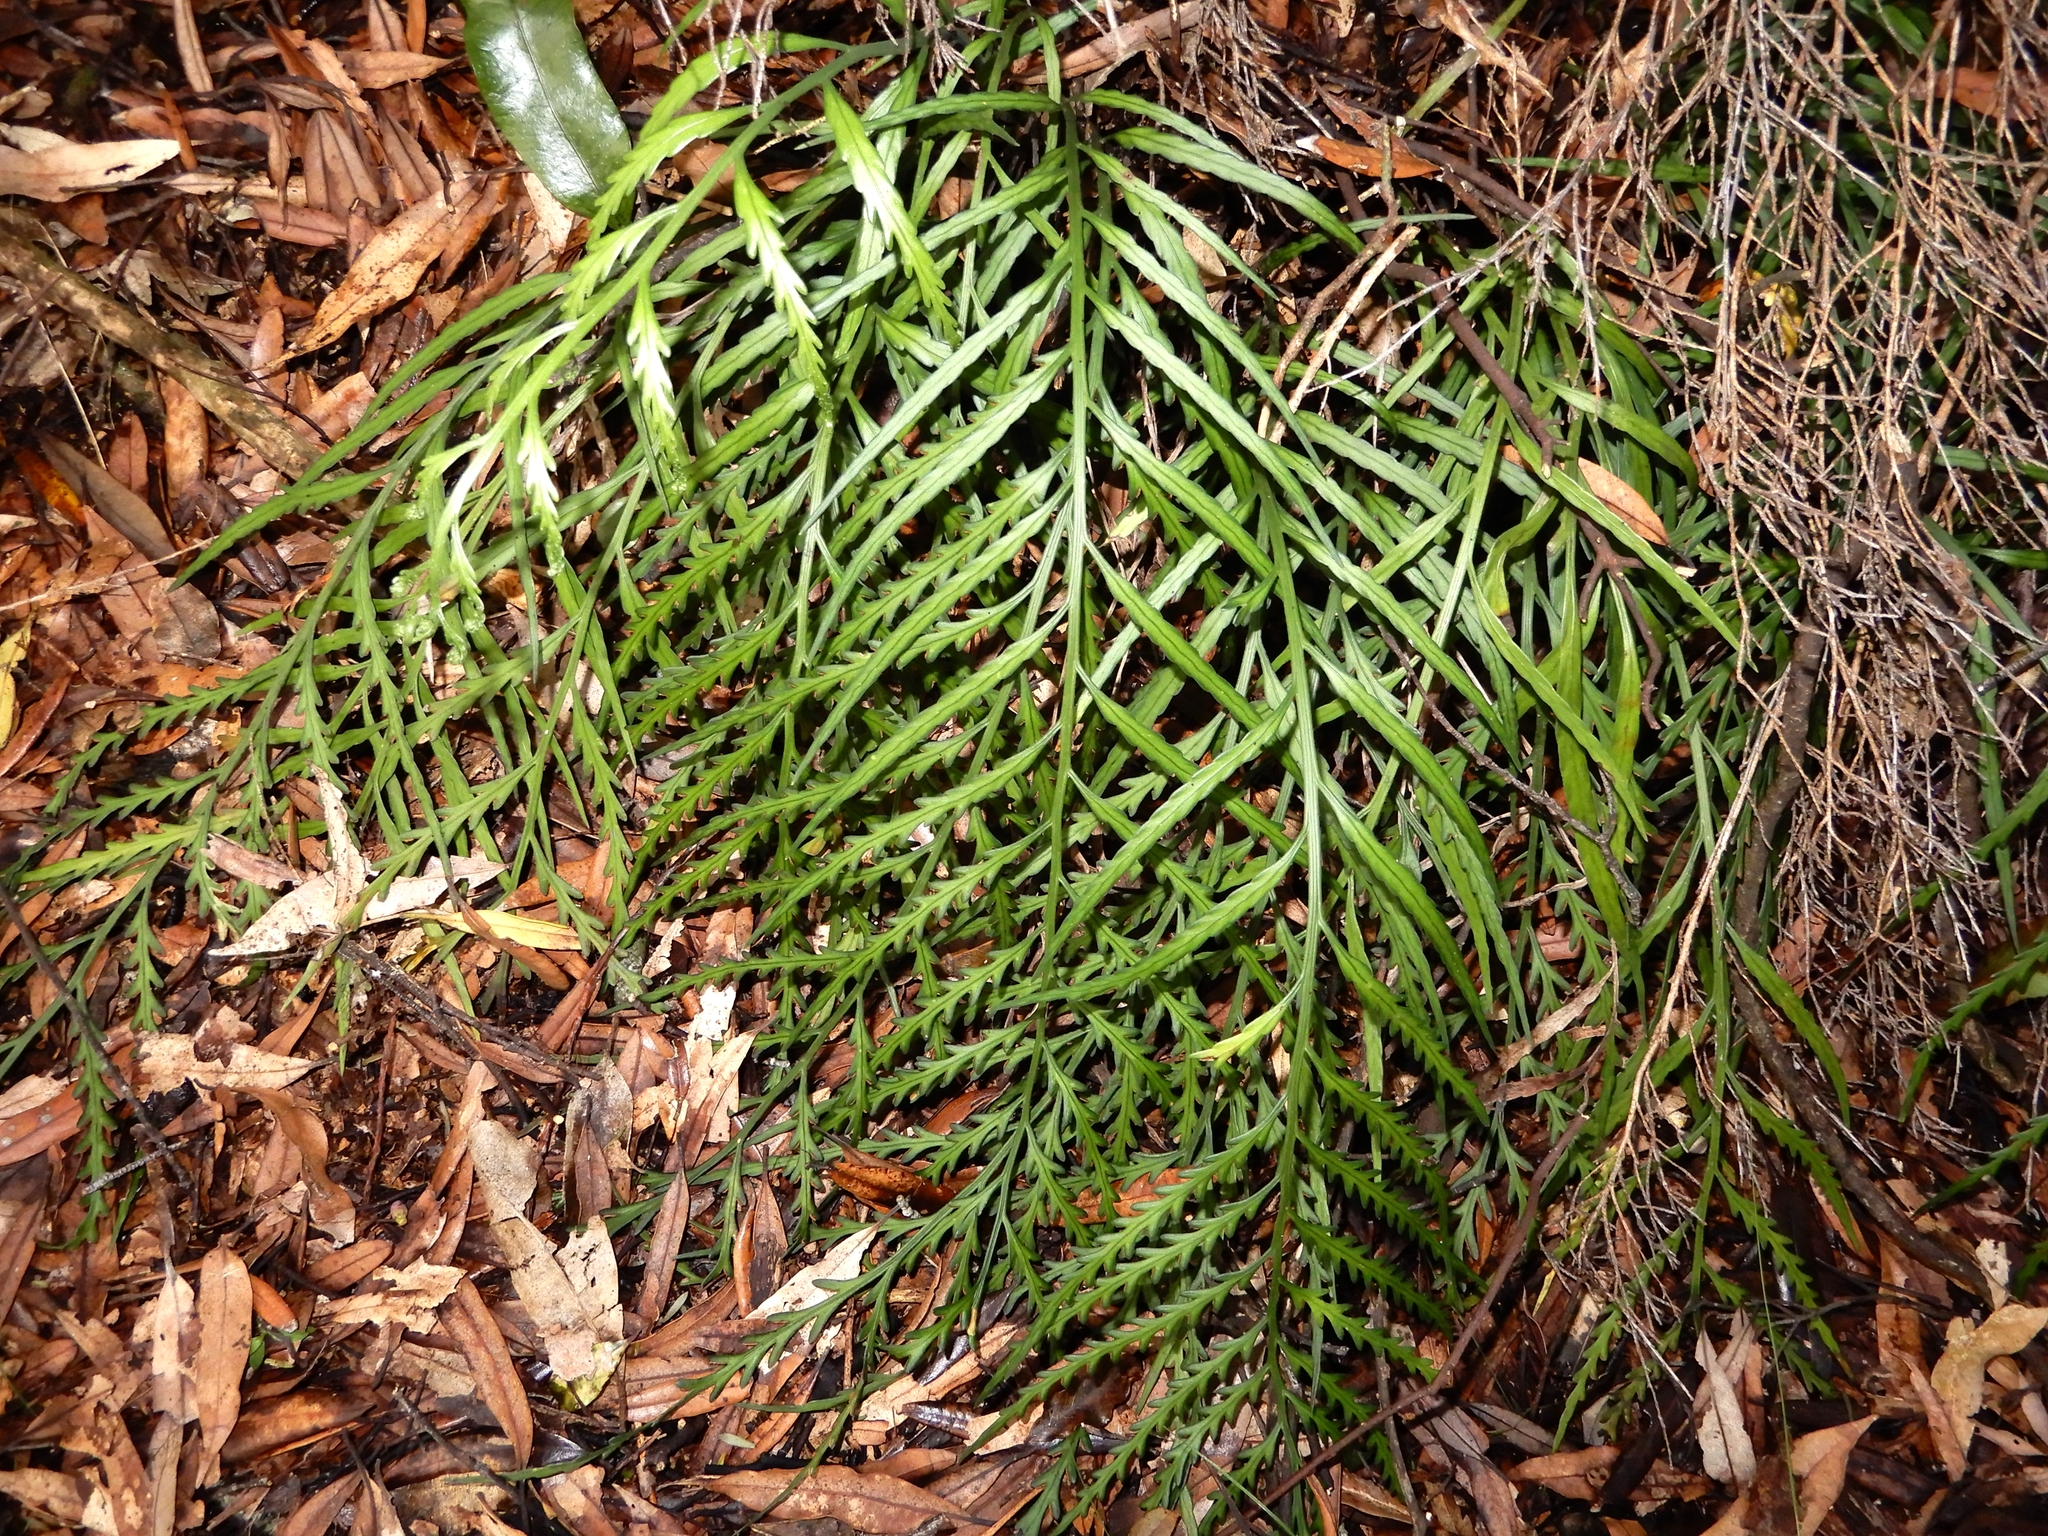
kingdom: Plantae
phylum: Tracheophyta
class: Polypodiopsida
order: Polypodiales
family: Aspleniaceae
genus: Asplenium
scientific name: Asplenium flaccidum
